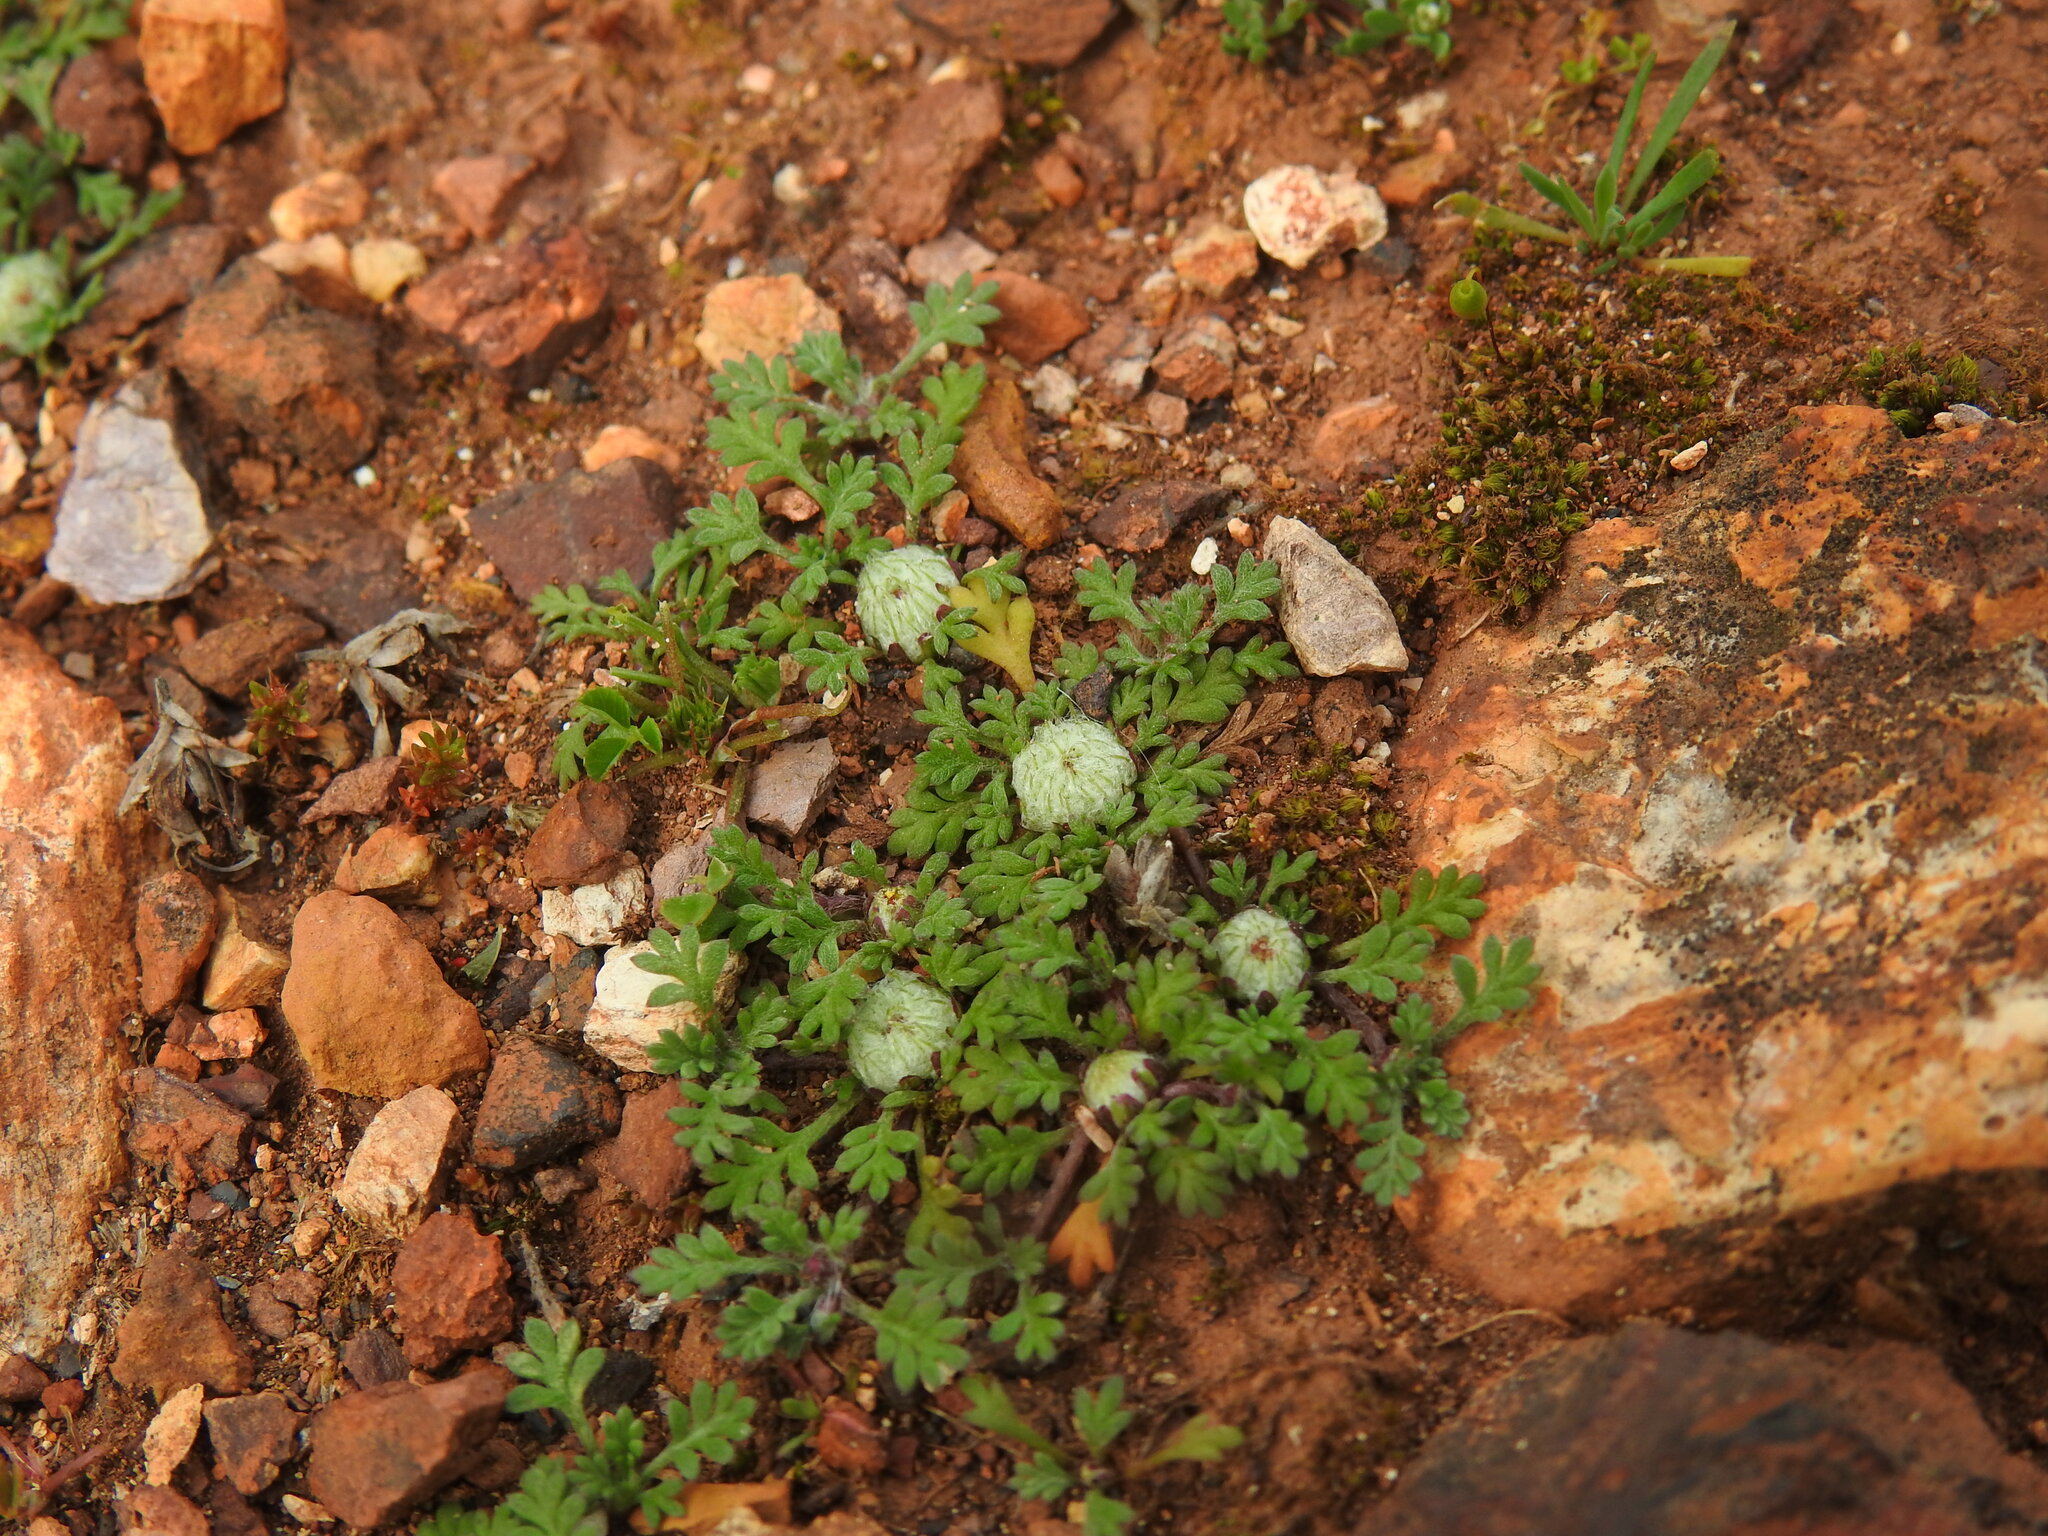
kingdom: Plantae
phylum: Tracheophyta
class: Magnoliopsida
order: Asterales
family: Asteraceae
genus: Soliva
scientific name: Soliva stolonifera
